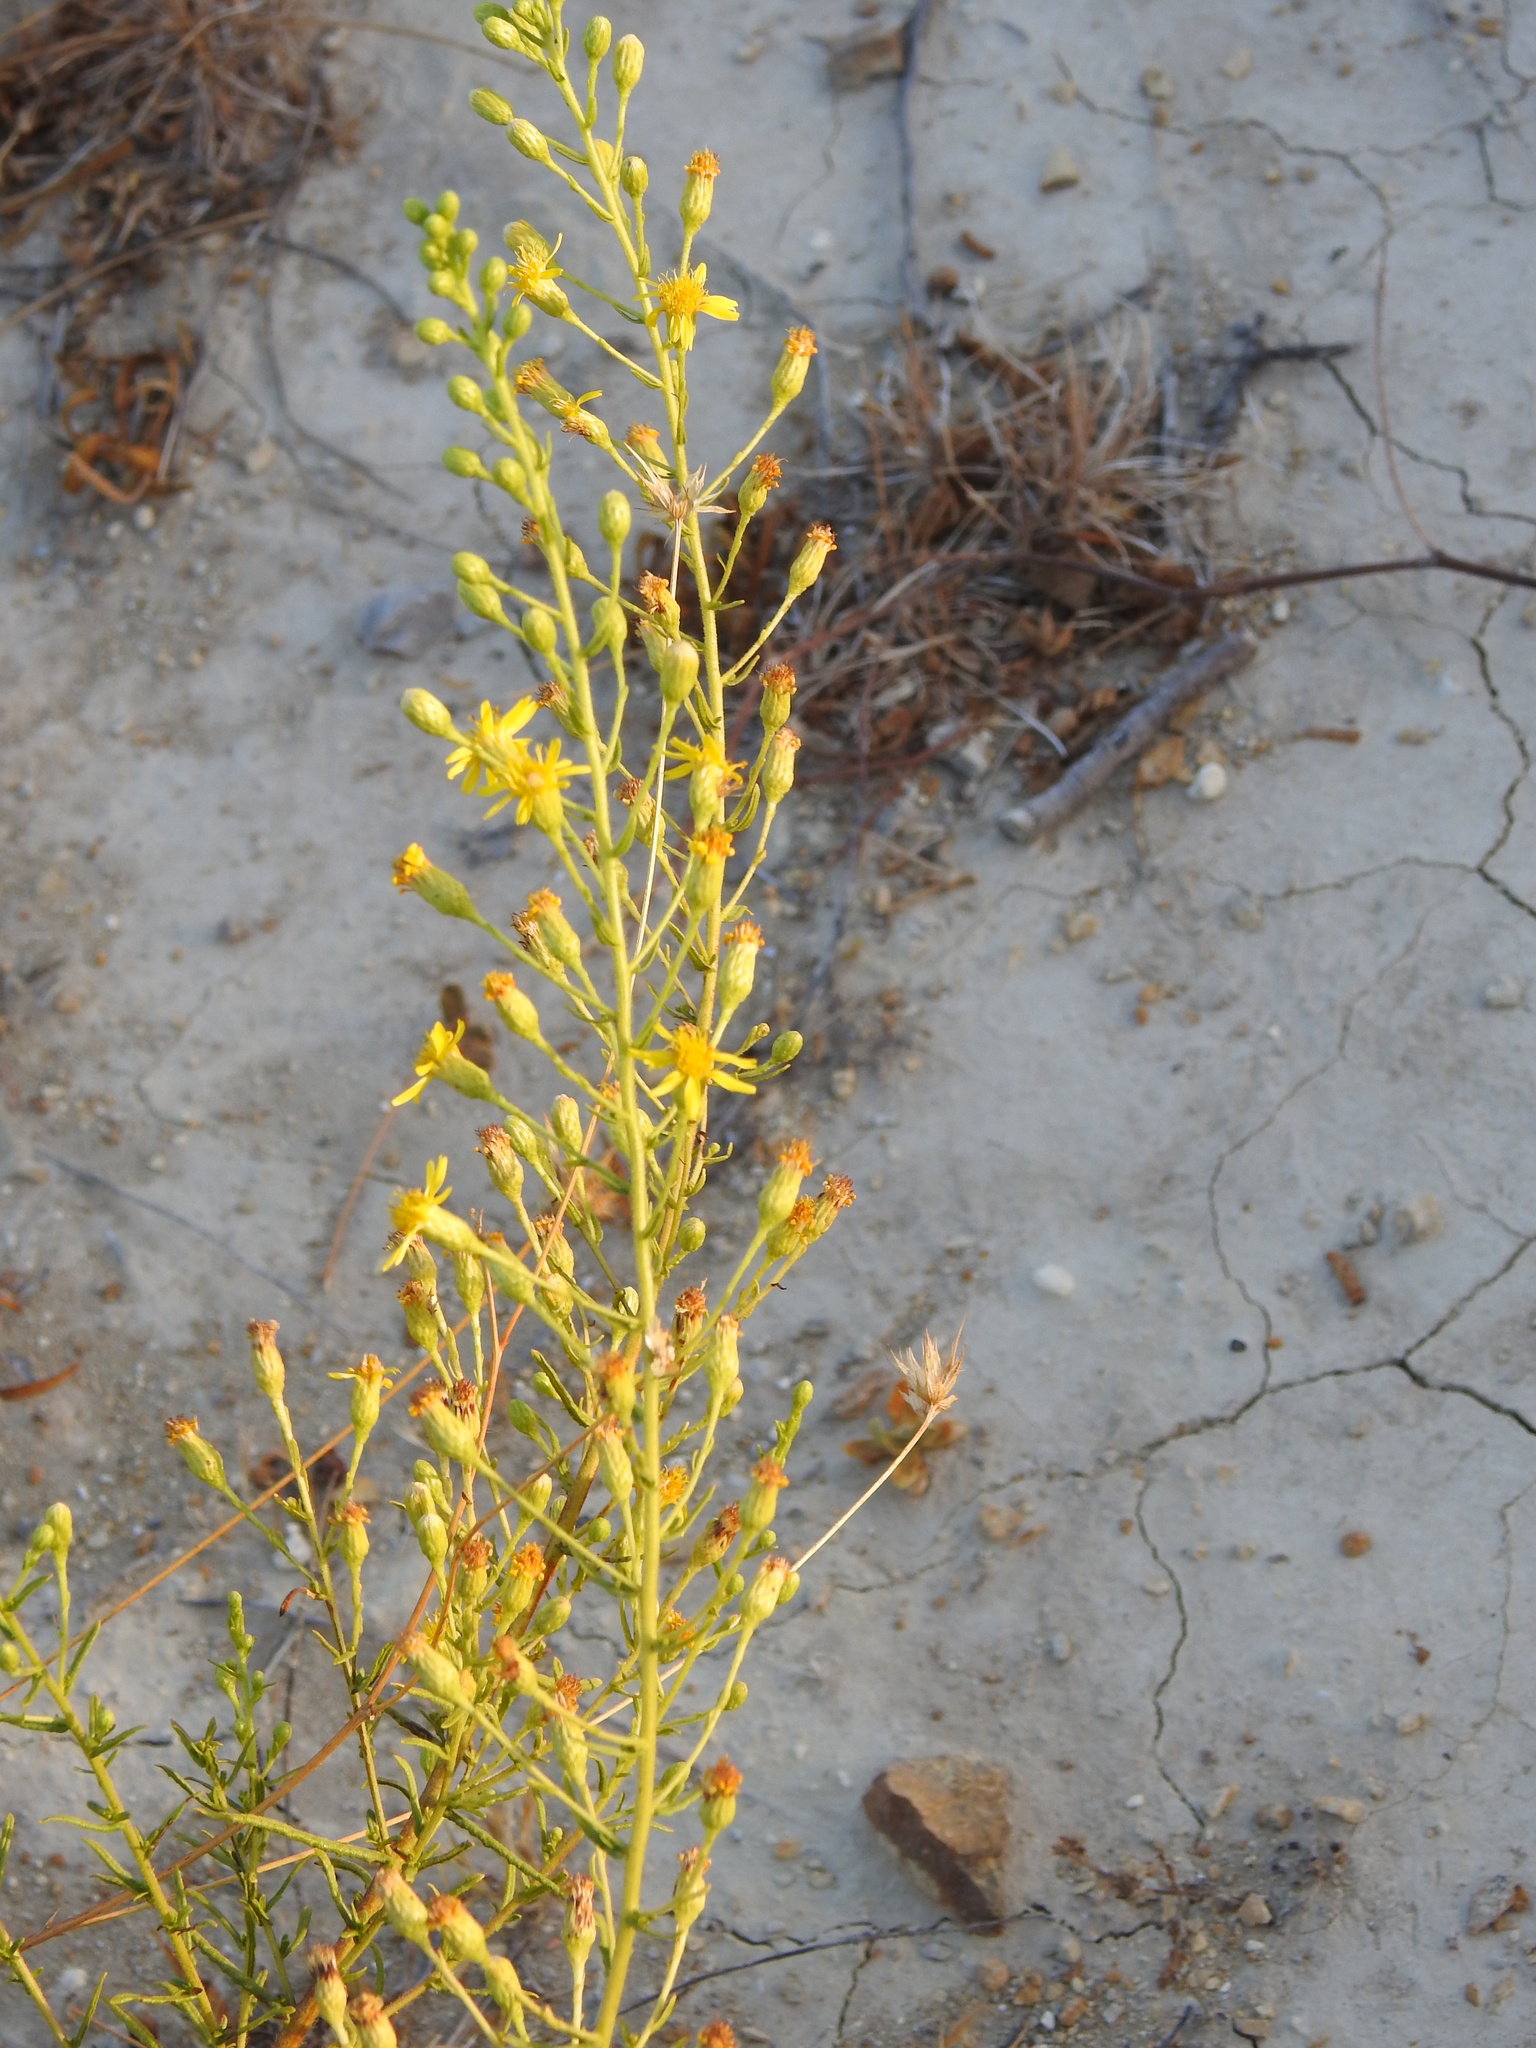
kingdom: Plantae
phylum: Tracheophyta
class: Magnoliopsida
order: Asterales
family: Asteraceae
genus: Dittrichia
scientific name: Dittrichia viscosa
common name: Woody fleabane
